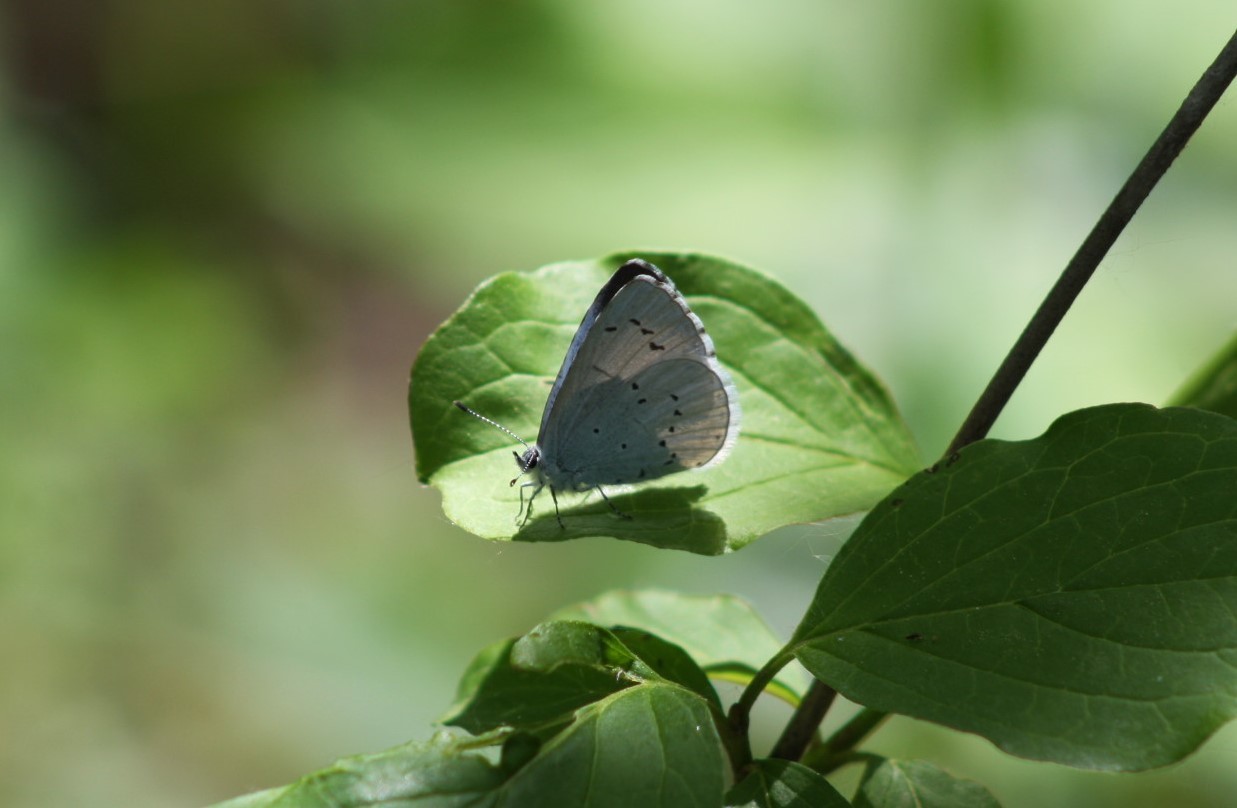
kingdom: Animalia
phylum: Arthropoda
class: Insecta
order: Lepidoptera
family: Lycaenidae
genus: Celastrina
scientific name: Celastrina argiolus
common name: Holly blue
